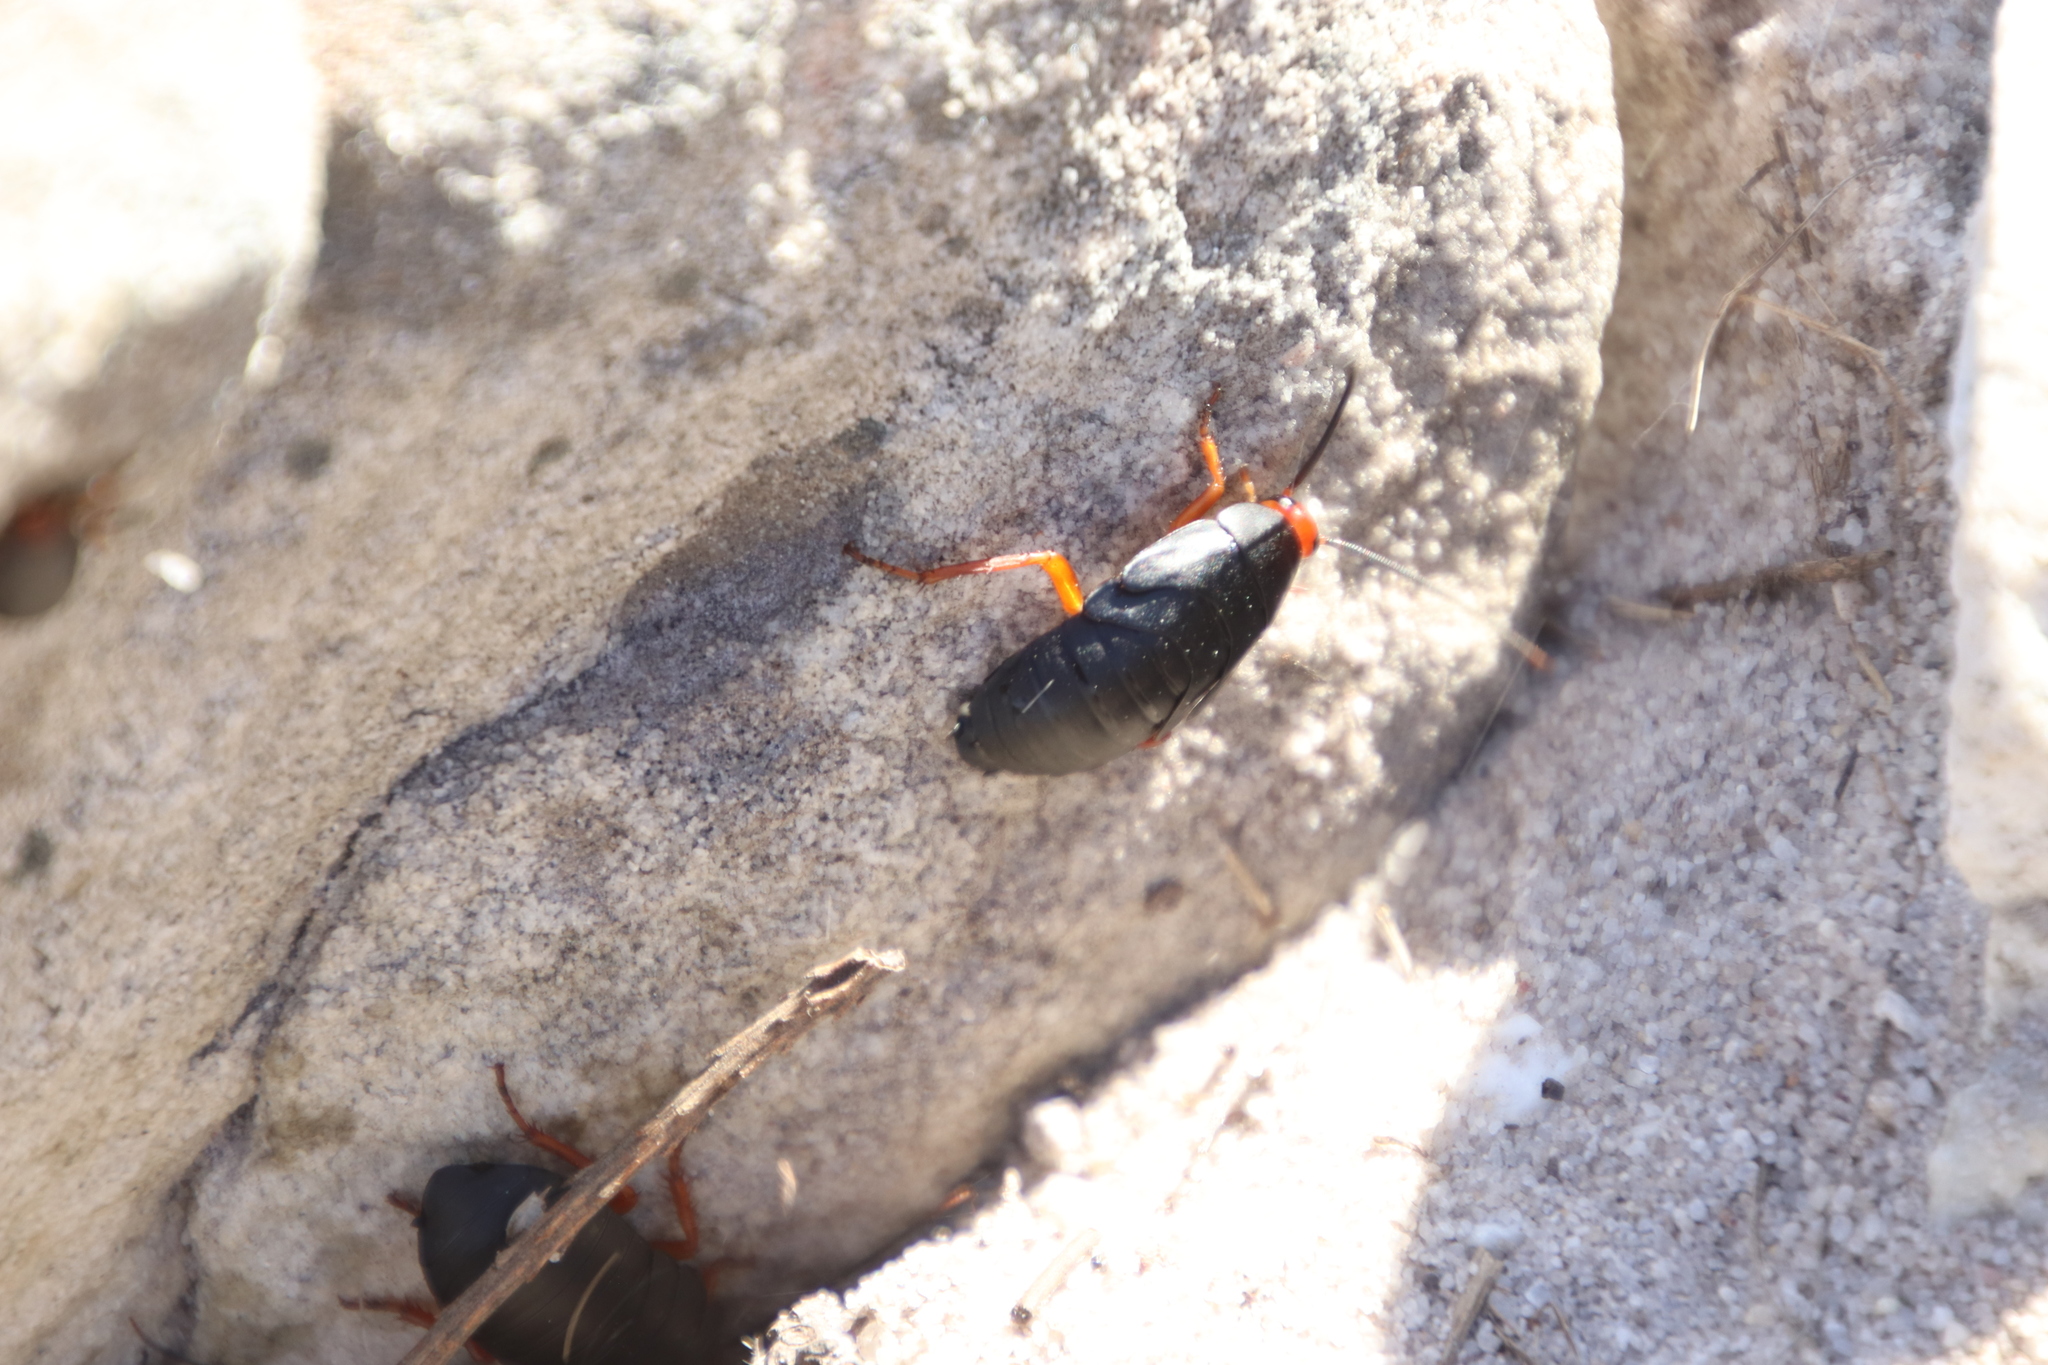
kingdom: Animalia
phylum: Arthropoda
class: Insecta
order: Blattodea
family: Blattidae
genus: Deropeltis
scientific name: Deropeltis erythrocephala
